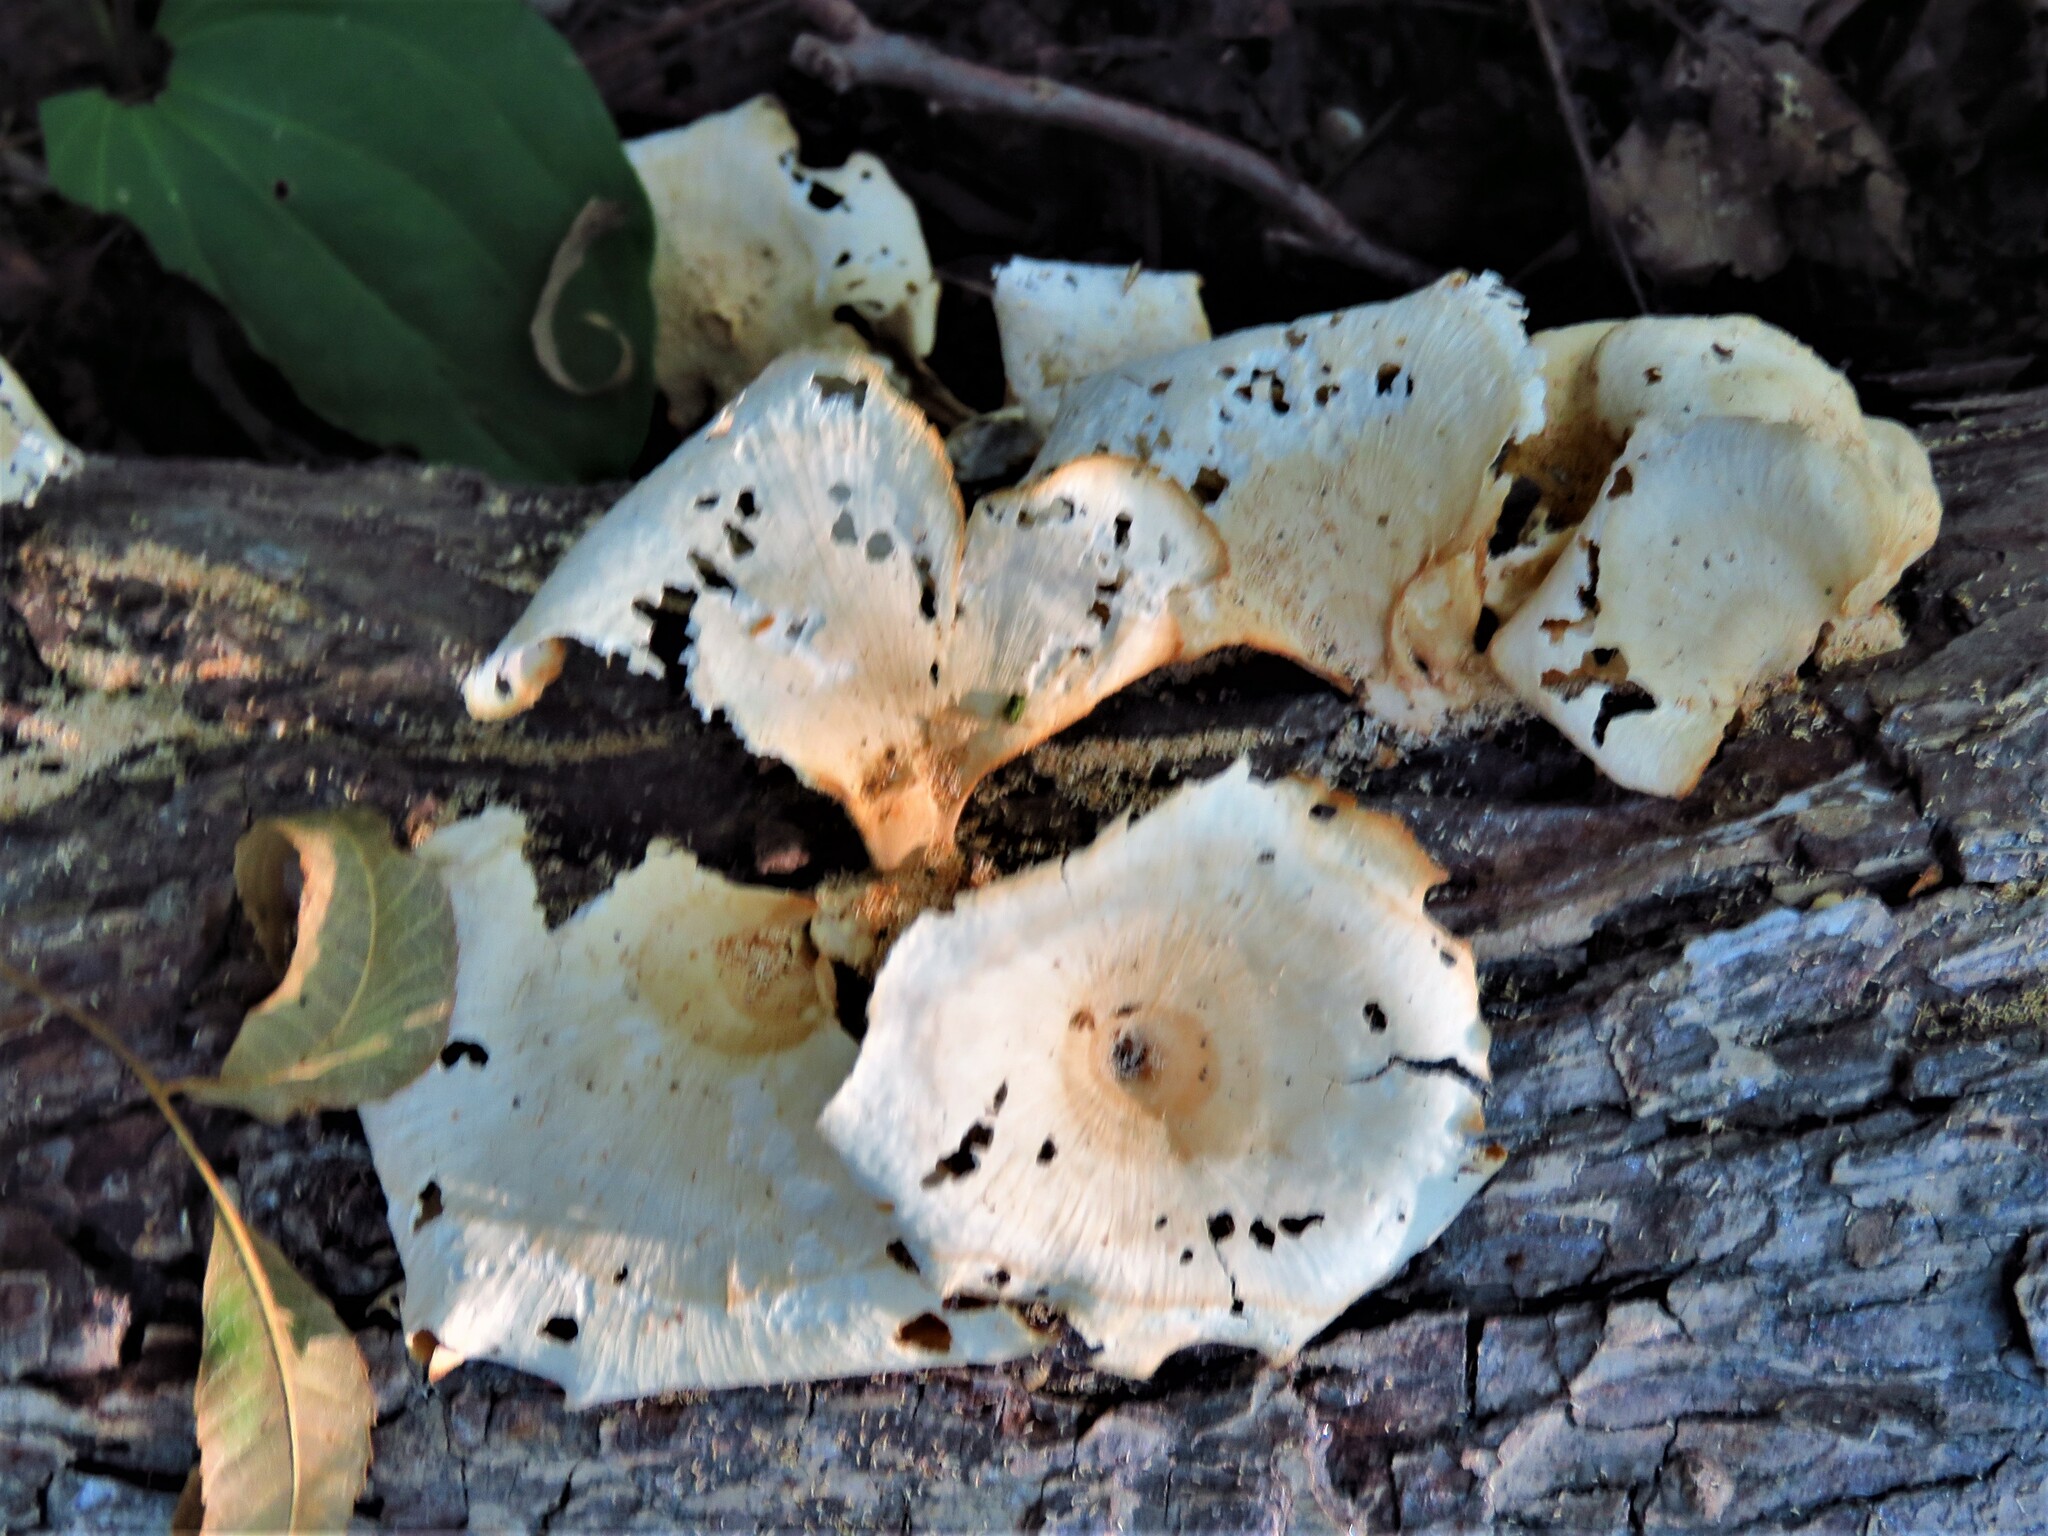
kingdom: Fungi
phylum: Basidiomycota
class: Agaricomycetes
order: Polyporales
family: Polyporaceae
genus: Favolus
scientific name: Favolus tenuiculus
